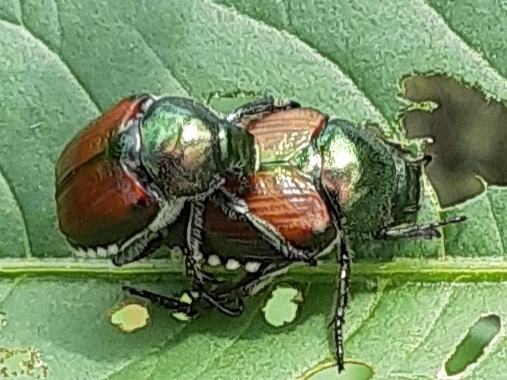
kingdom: Animalia
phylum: Arthropoda
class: Insecta
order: Coleoptera
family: Scarabaeidae
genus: Popillia
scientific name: Popillia japonica
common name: Japanese beetle
